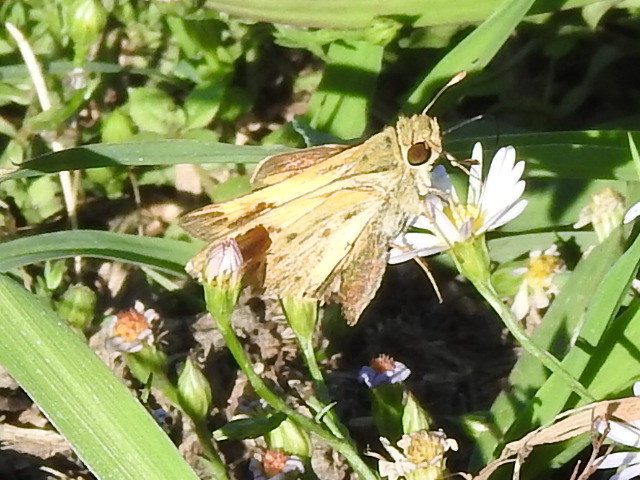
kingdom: Animalia
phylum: Arthropoda
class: Insecta
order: Lepidoptera
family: Hesperiidae
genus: Hylephila
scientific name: Hylephila phyleus
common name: Fiery skipper
